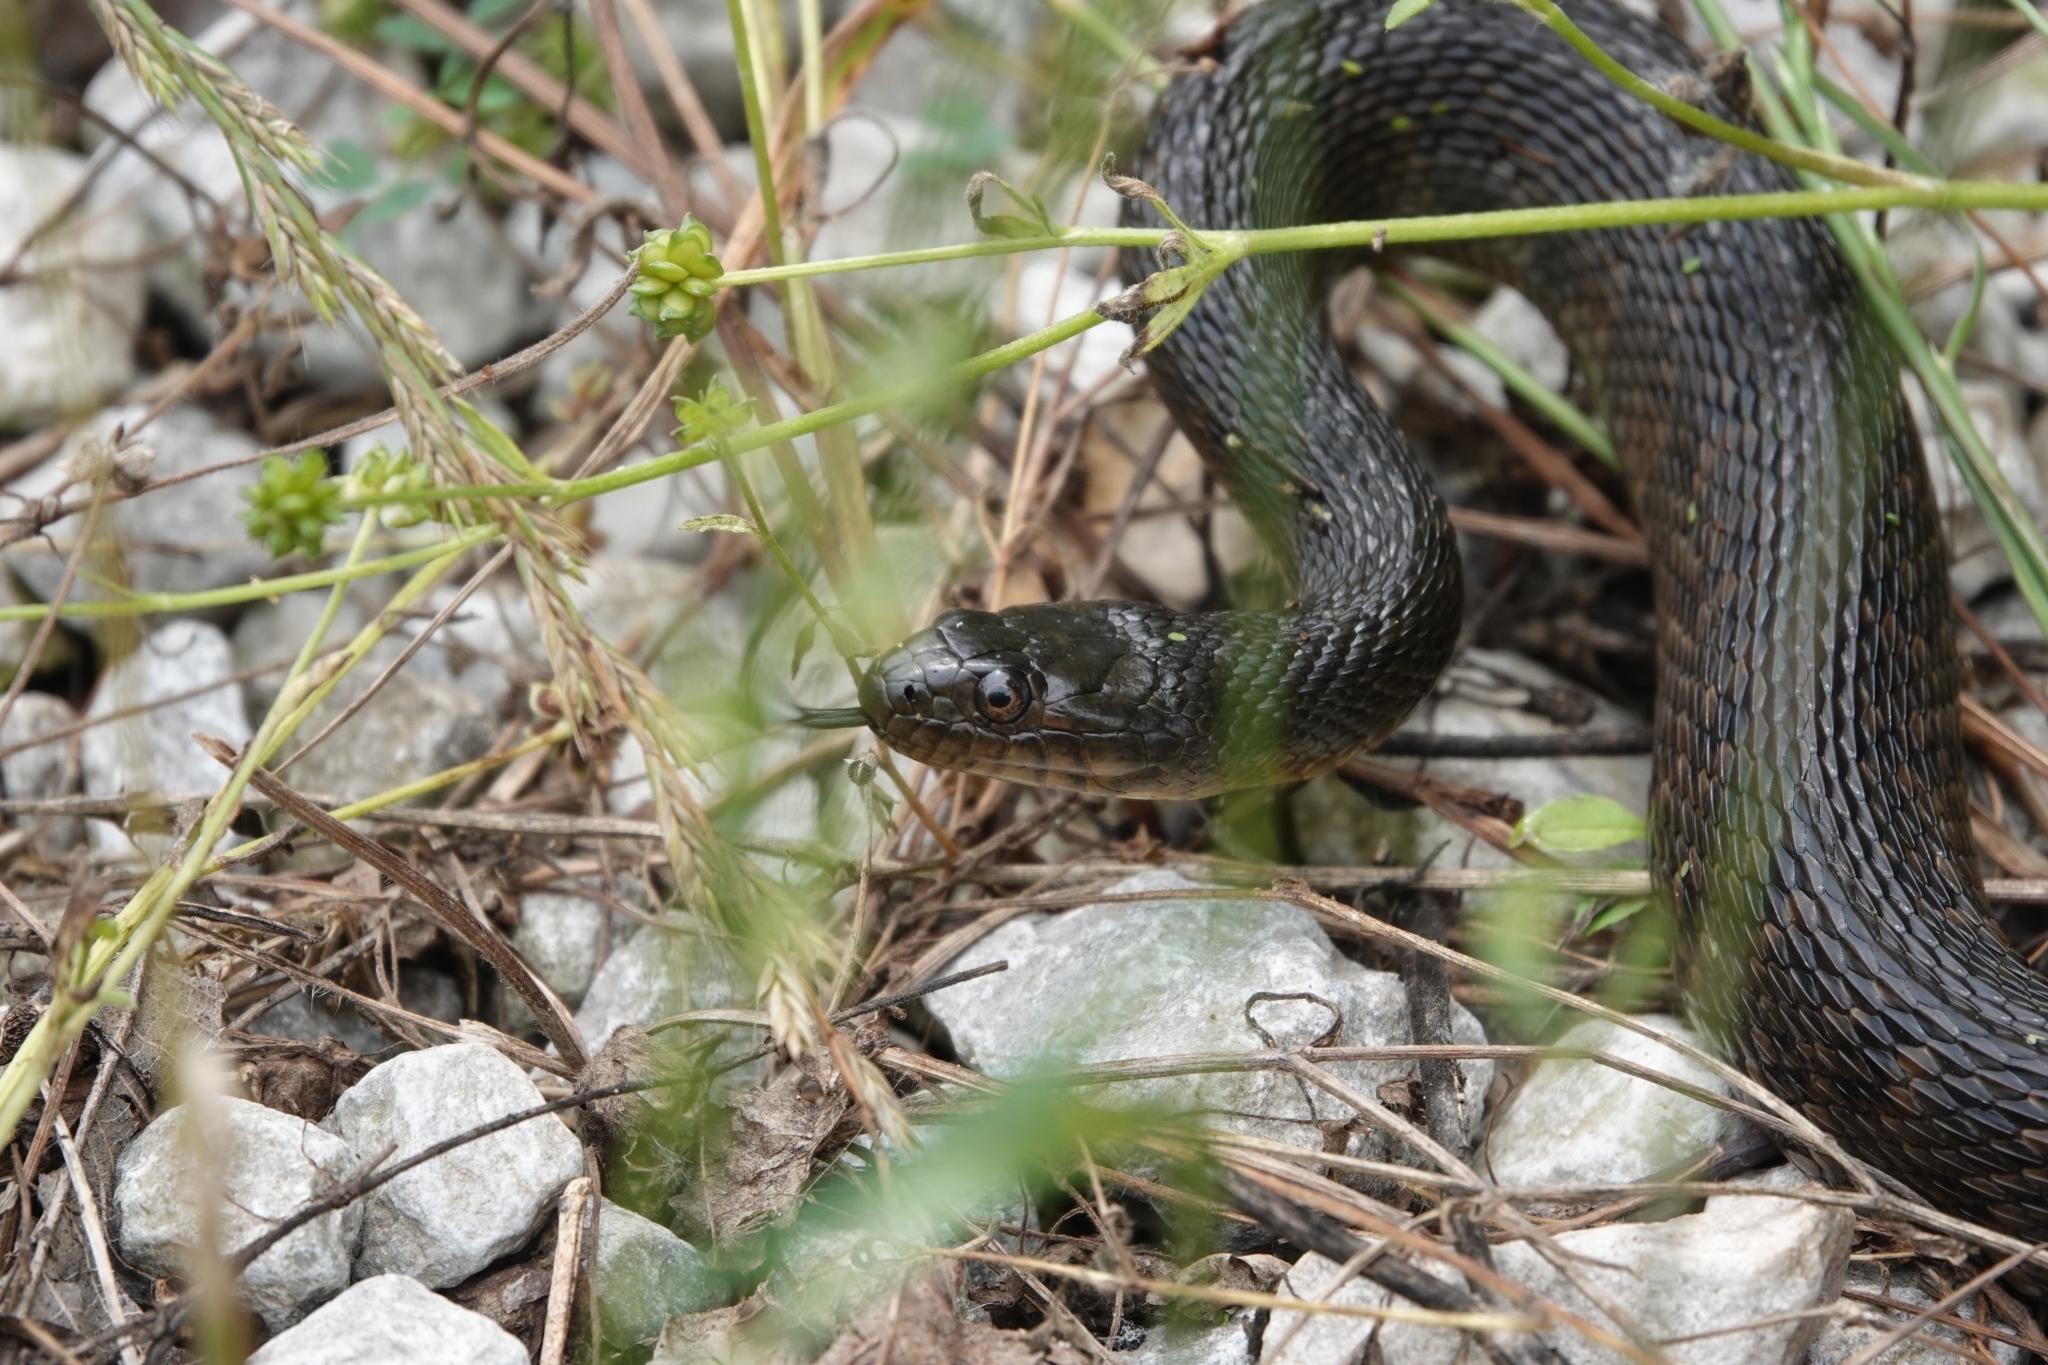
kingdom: Animalia
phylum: Chordata
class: Squamata
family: Colubridae
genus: Nerodia
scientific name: Nerodia cyclopion
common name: Mississippi green water snake
